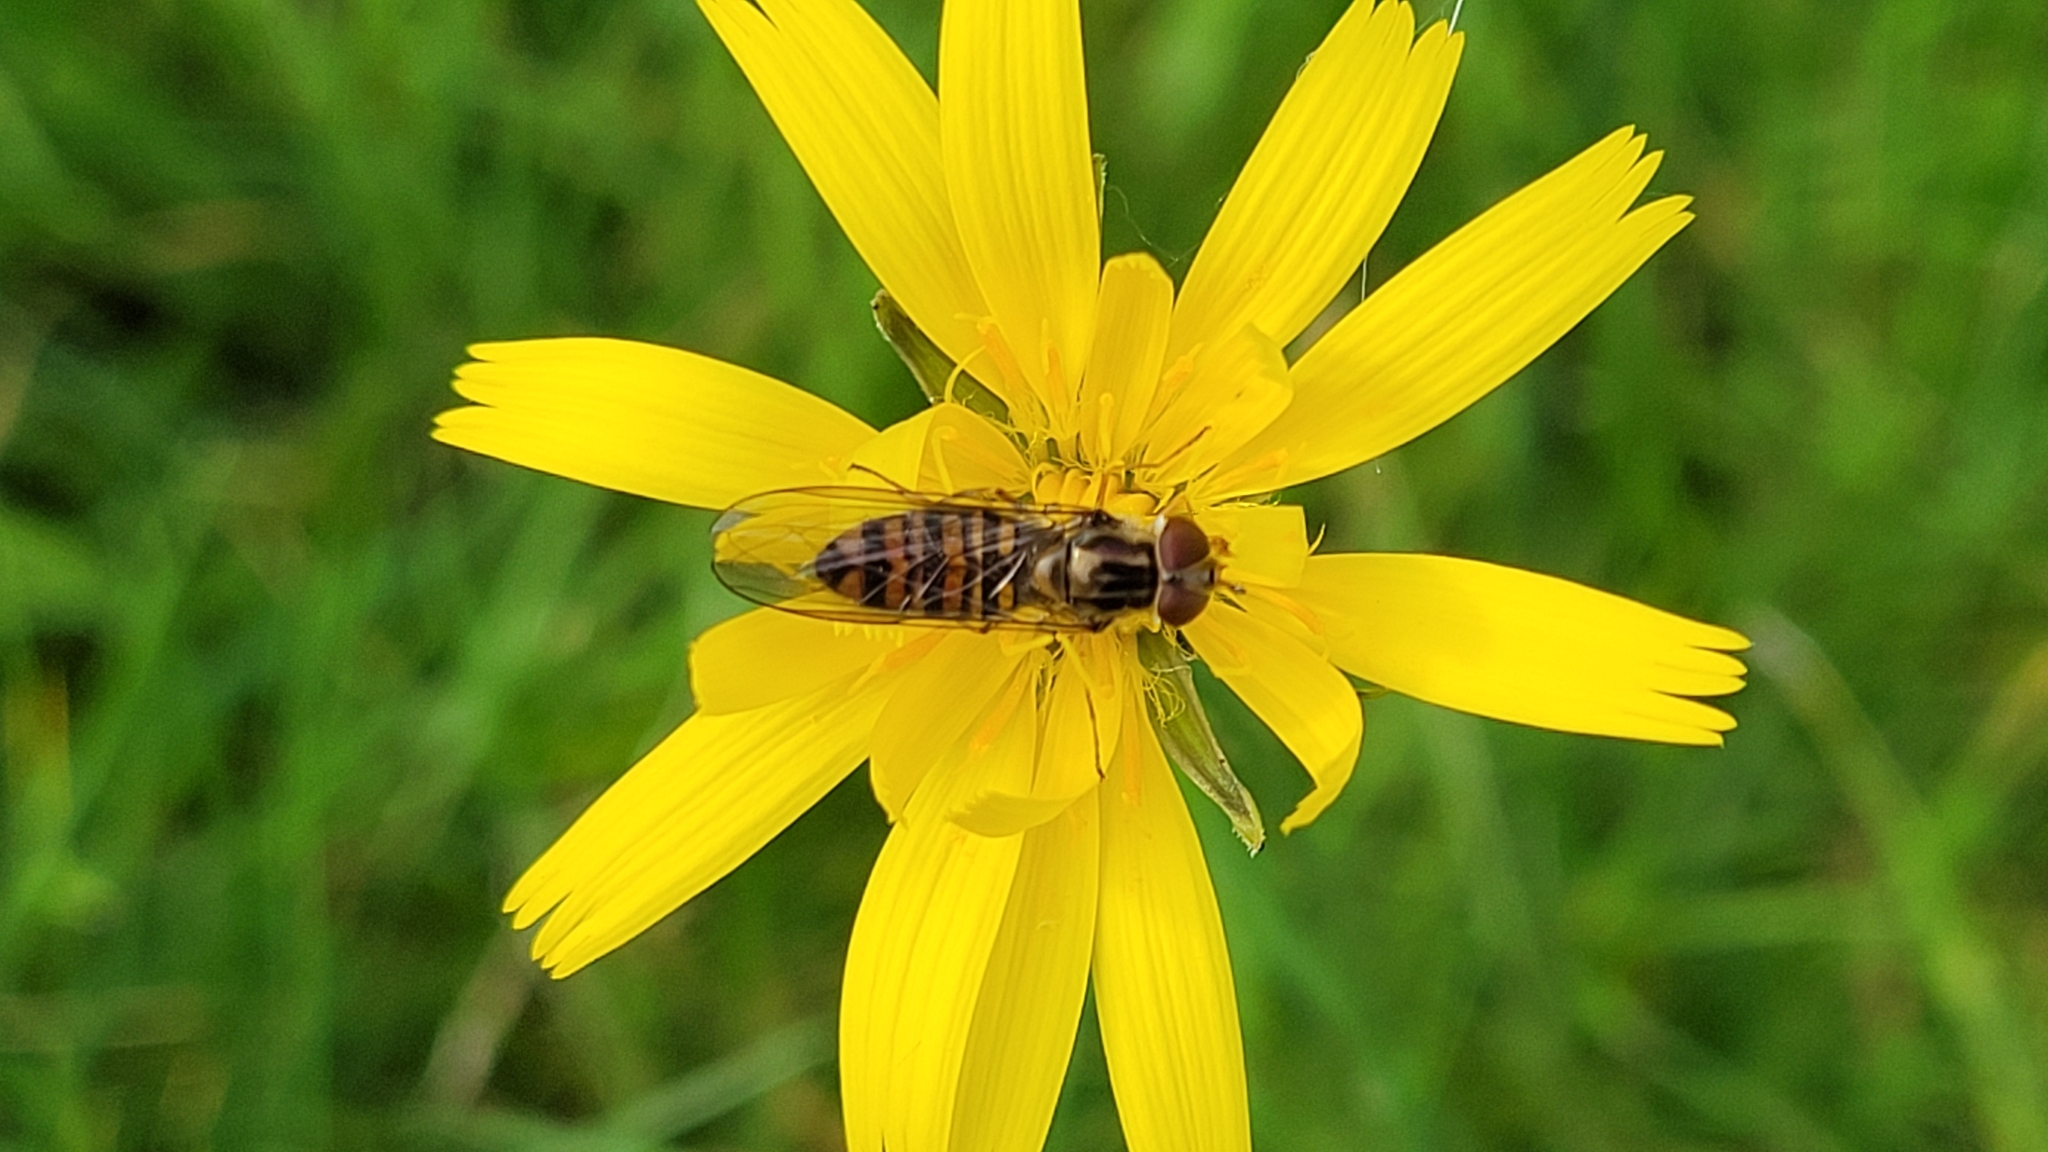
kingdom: Animalia
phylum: Arthropoda
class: Insecta
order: Diptera
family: Syrphidae
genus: Episyrphus
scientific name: Episyrphus balteatus
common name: Marmalade hoverfly
